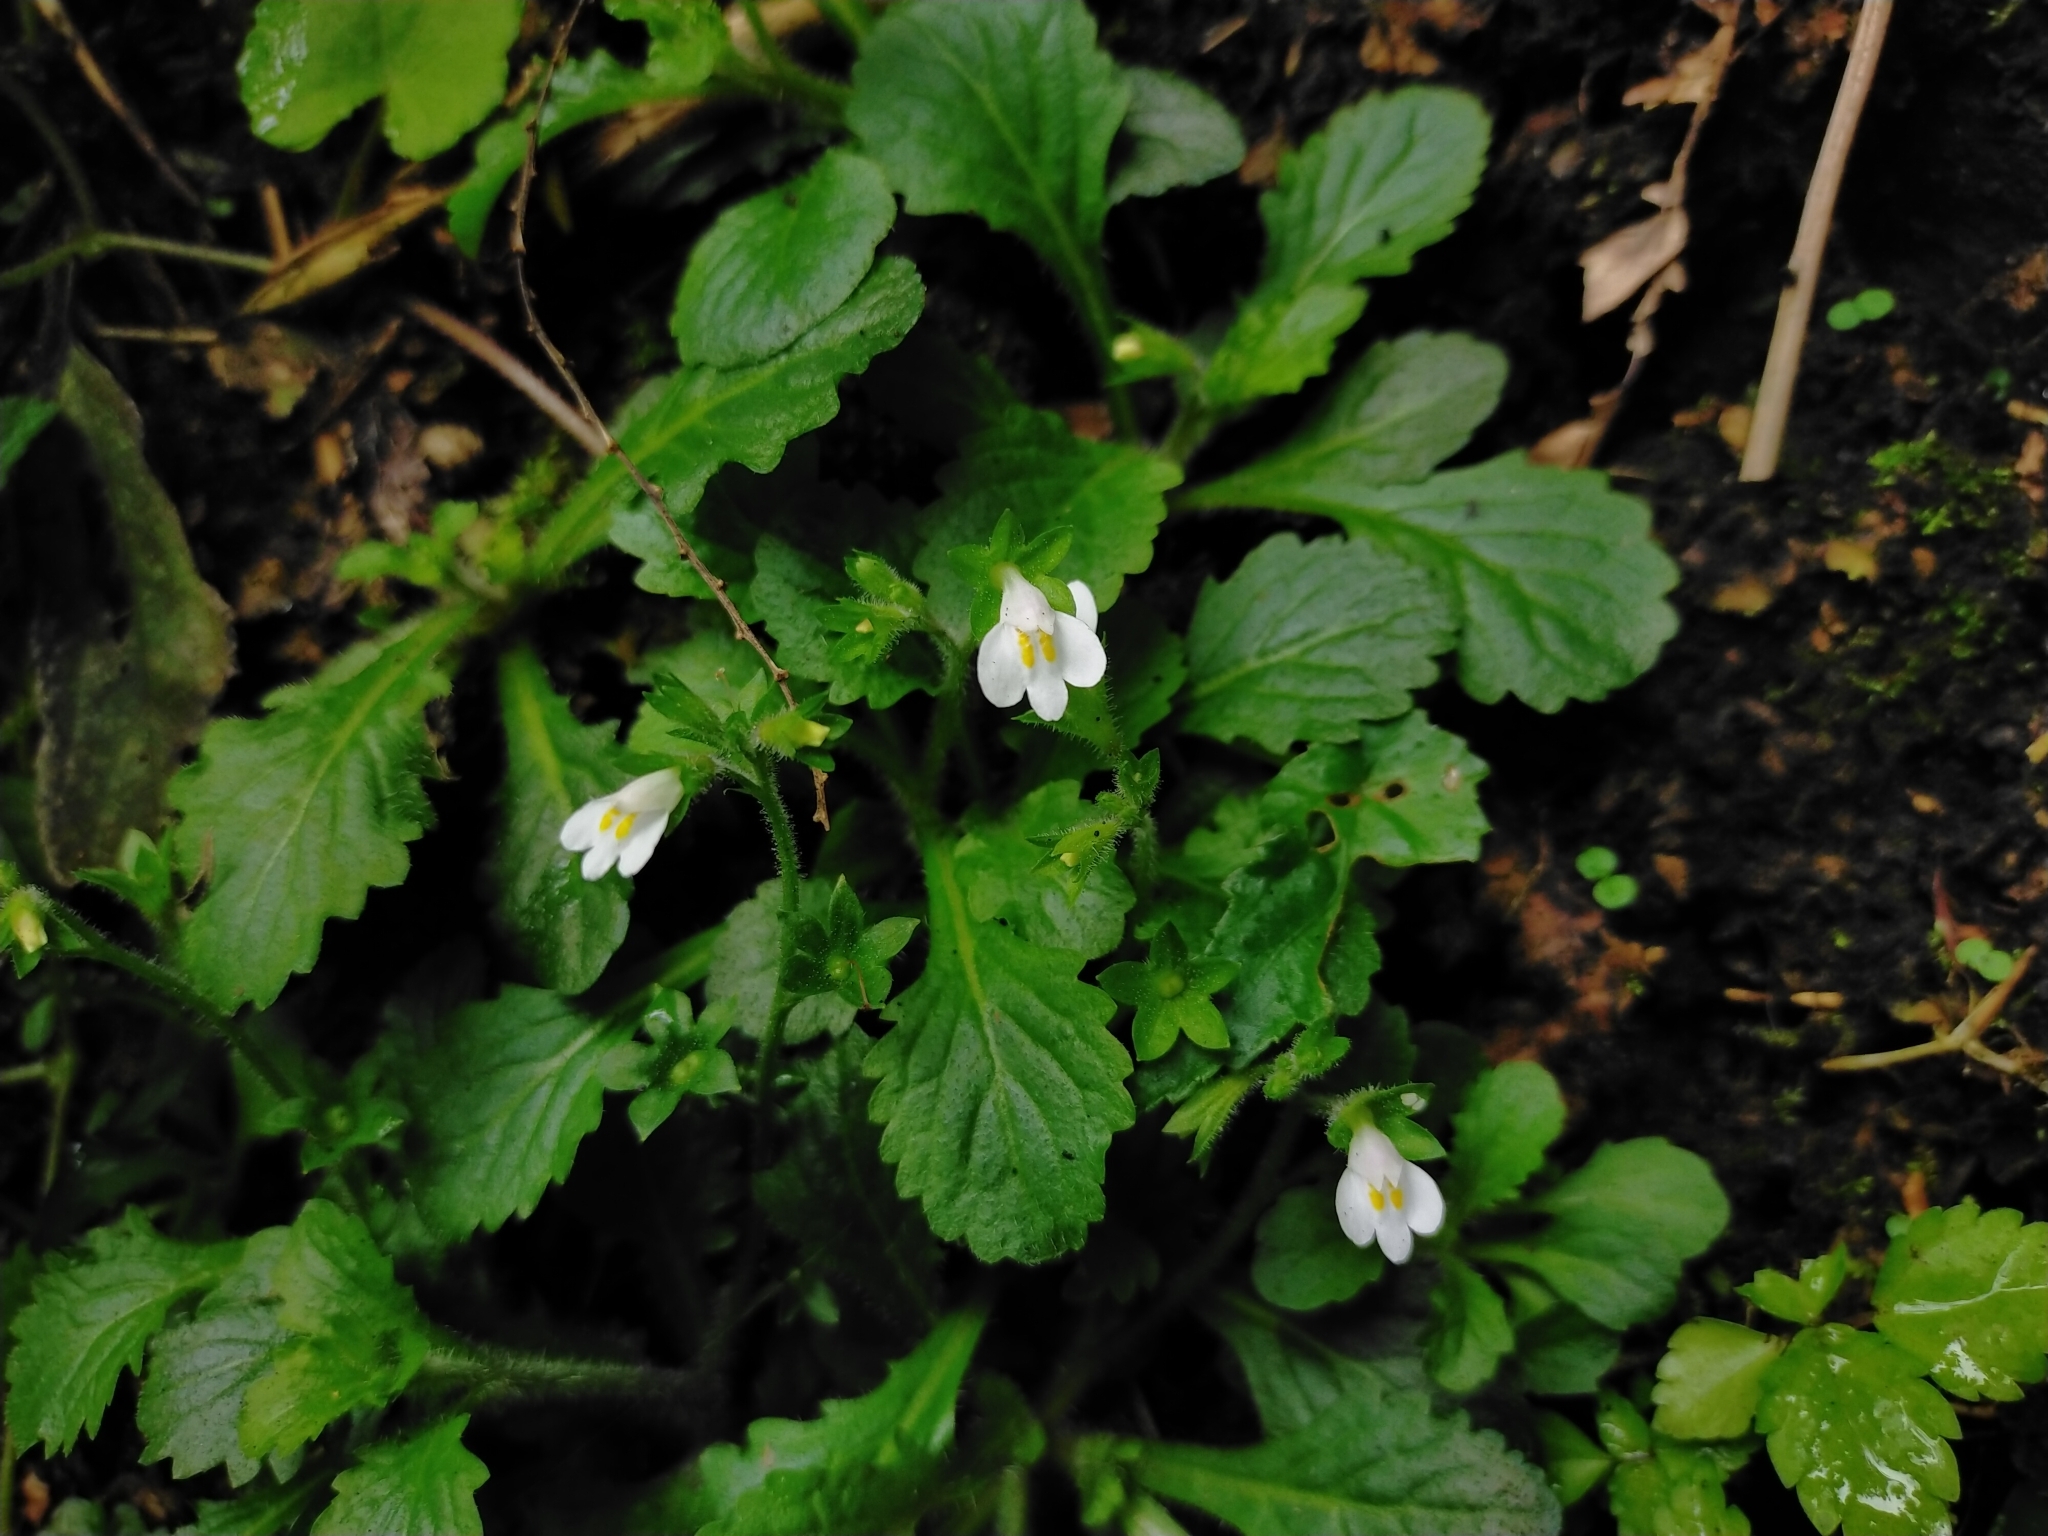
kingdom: Plantae
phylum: Tracheophyta
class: Magnoliopsida
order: Lamiales
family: Mazaceae
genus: Mazus
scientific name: Mazus goodeniifolius
